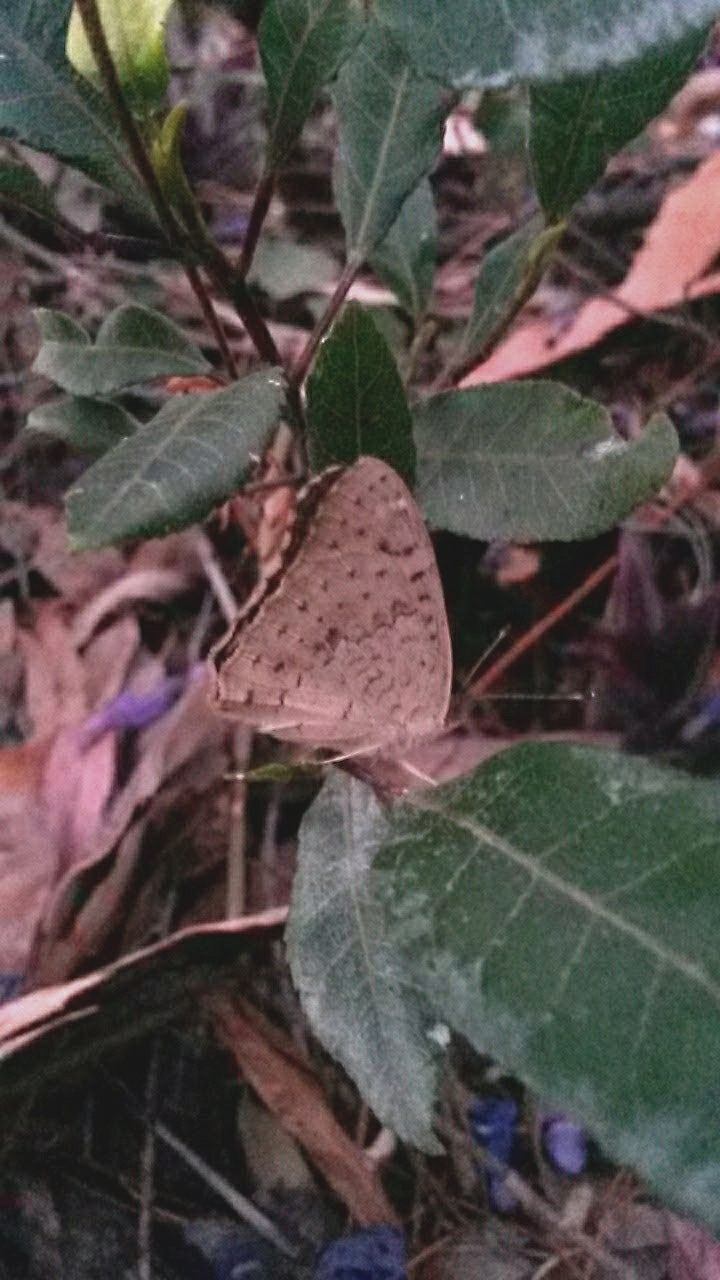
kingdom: Animalia
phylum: Arthropoda
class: Insecta
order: Lepidoptera
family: Nymphalidae
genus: Junonia
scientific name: Junonia villida
